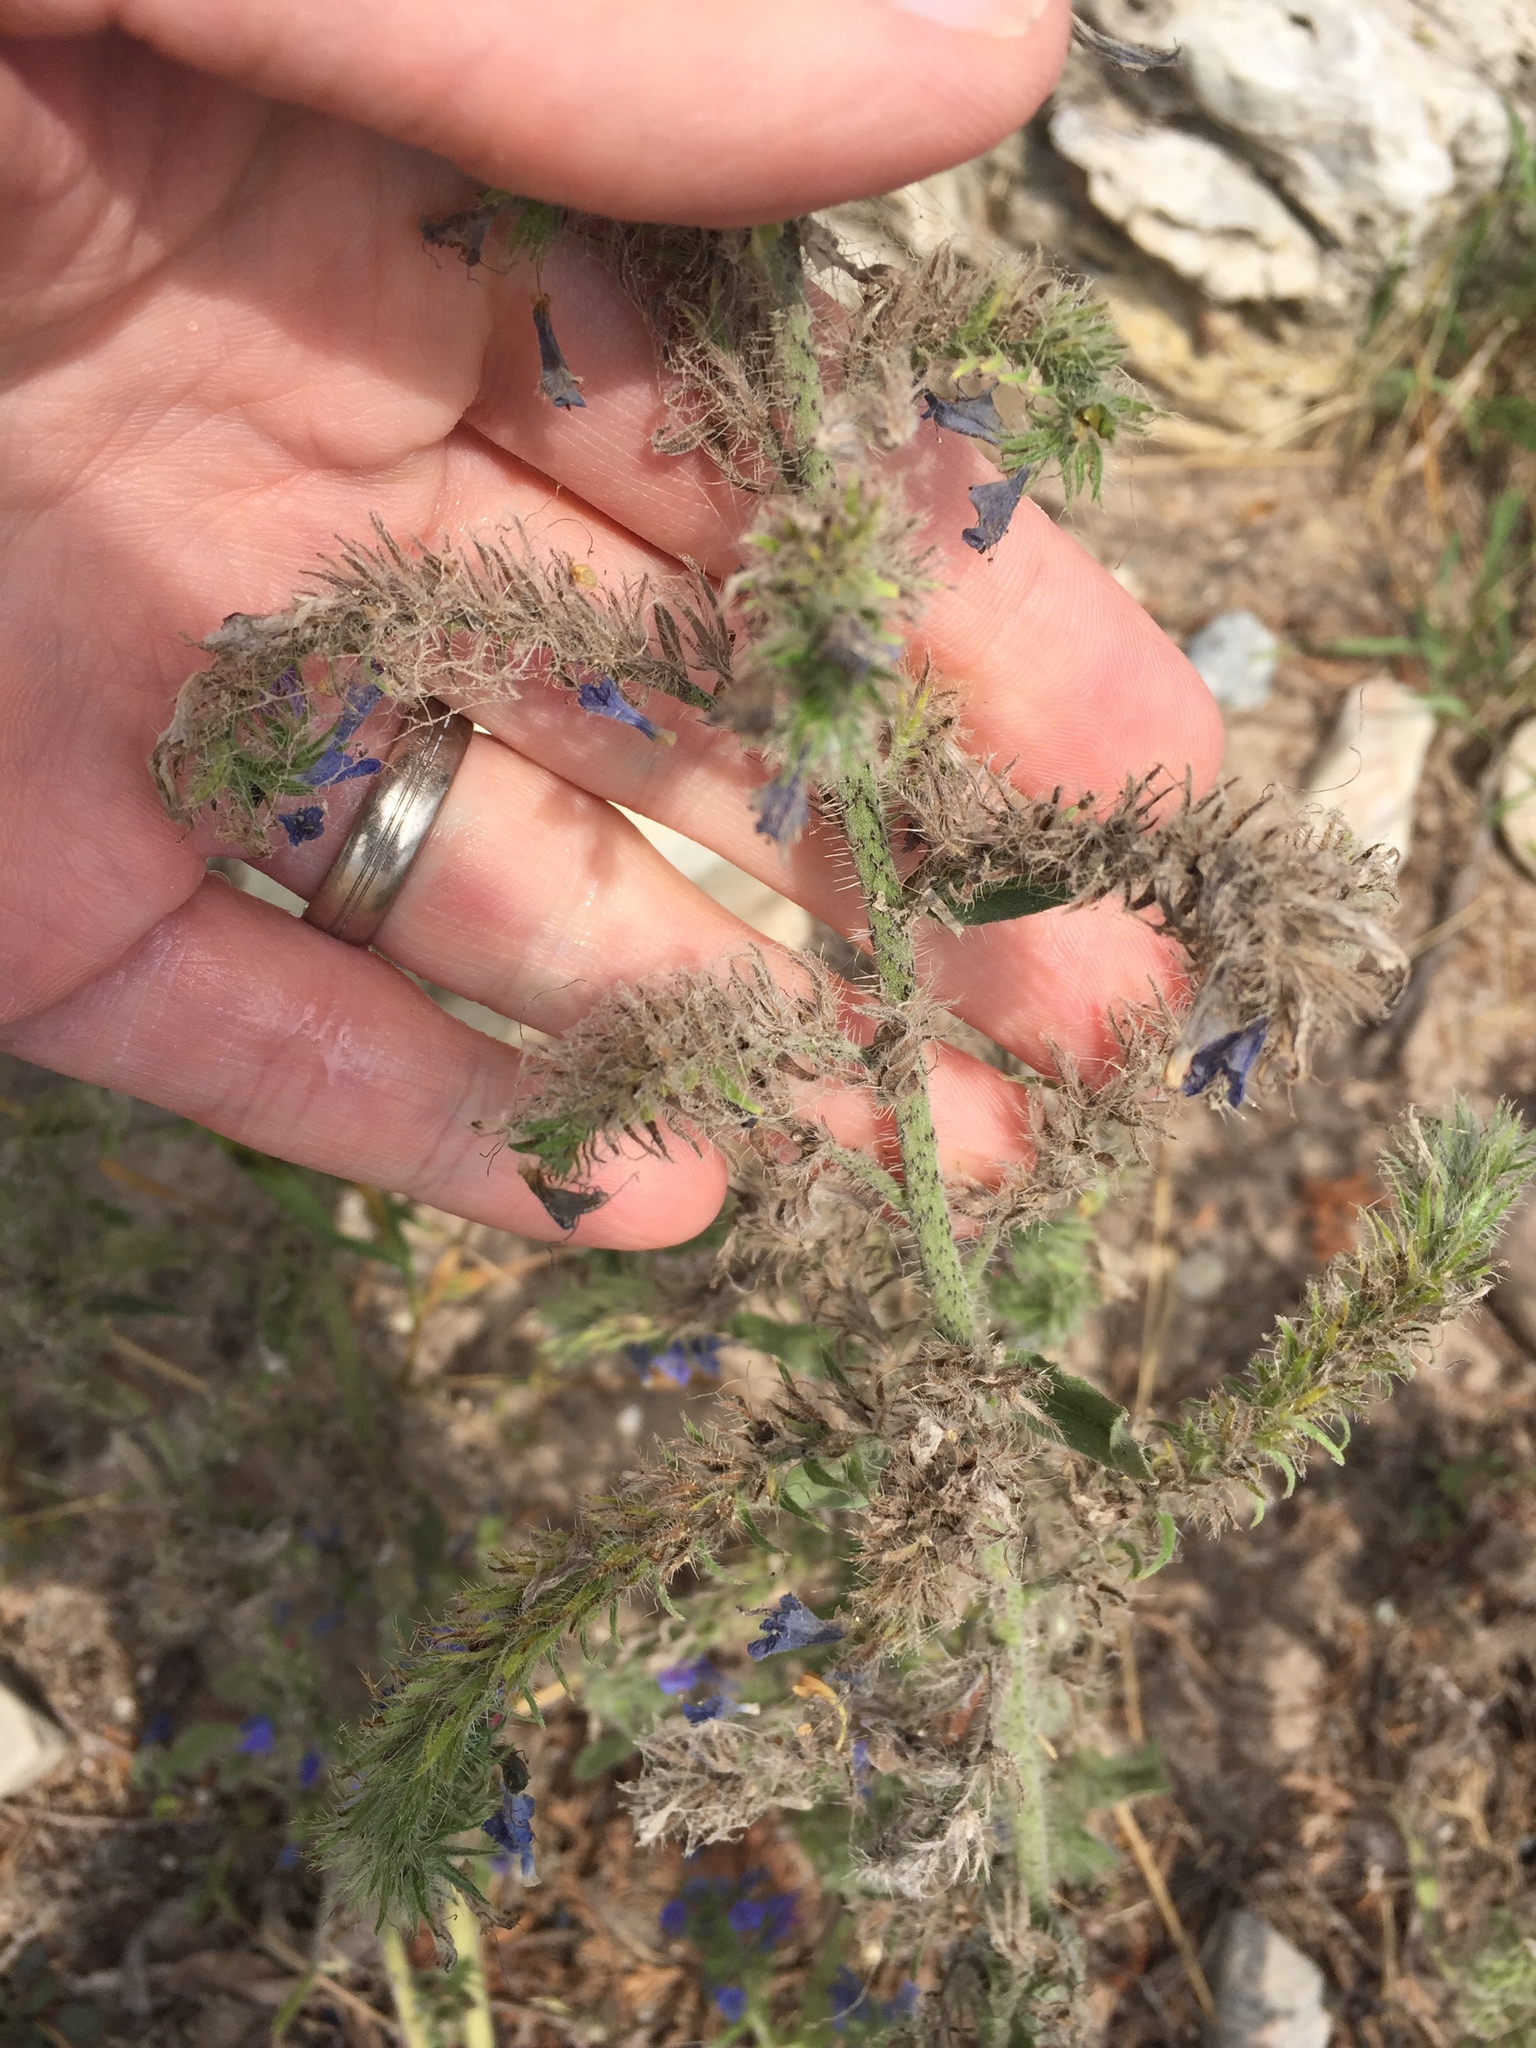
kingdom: Plantae
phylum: Tracheophyta
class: Magnoliopsida
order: Boraginales
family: Boraginaceae
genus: Echium
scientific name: Echium vulgare
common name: Common viper's bugloss
